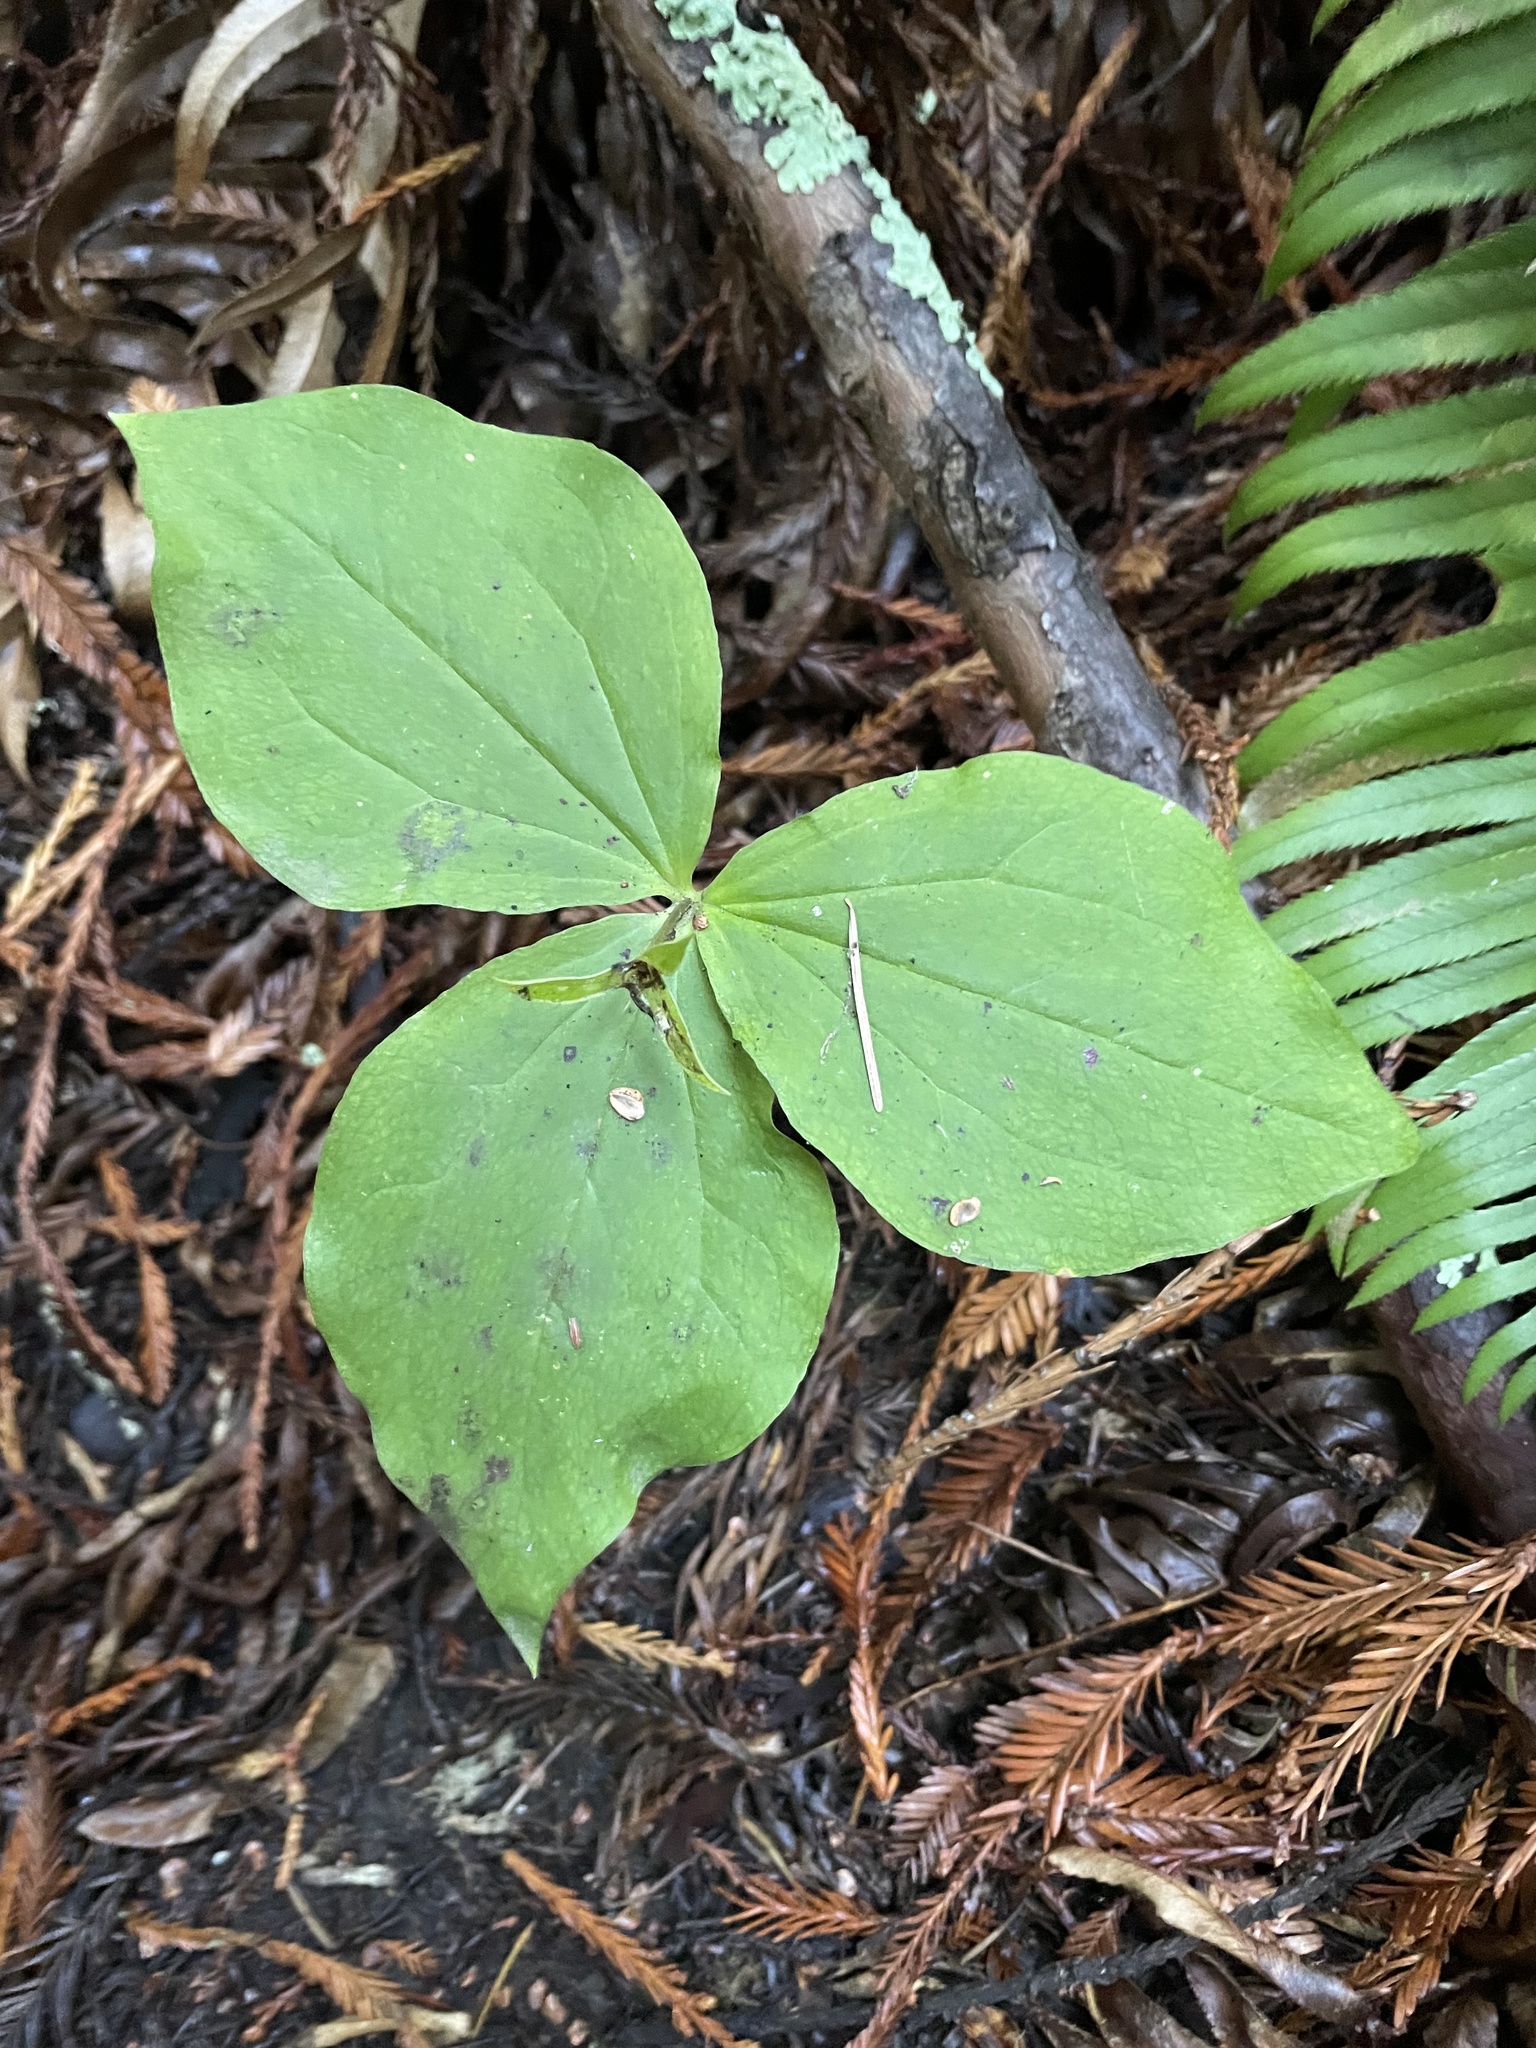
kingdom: Plantae
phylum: Tracheophyta
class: Liliopsida
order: Liliales
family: Melanthiaceae
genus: Trillium
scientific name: Trillium ovatum
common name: Pacific trillium
